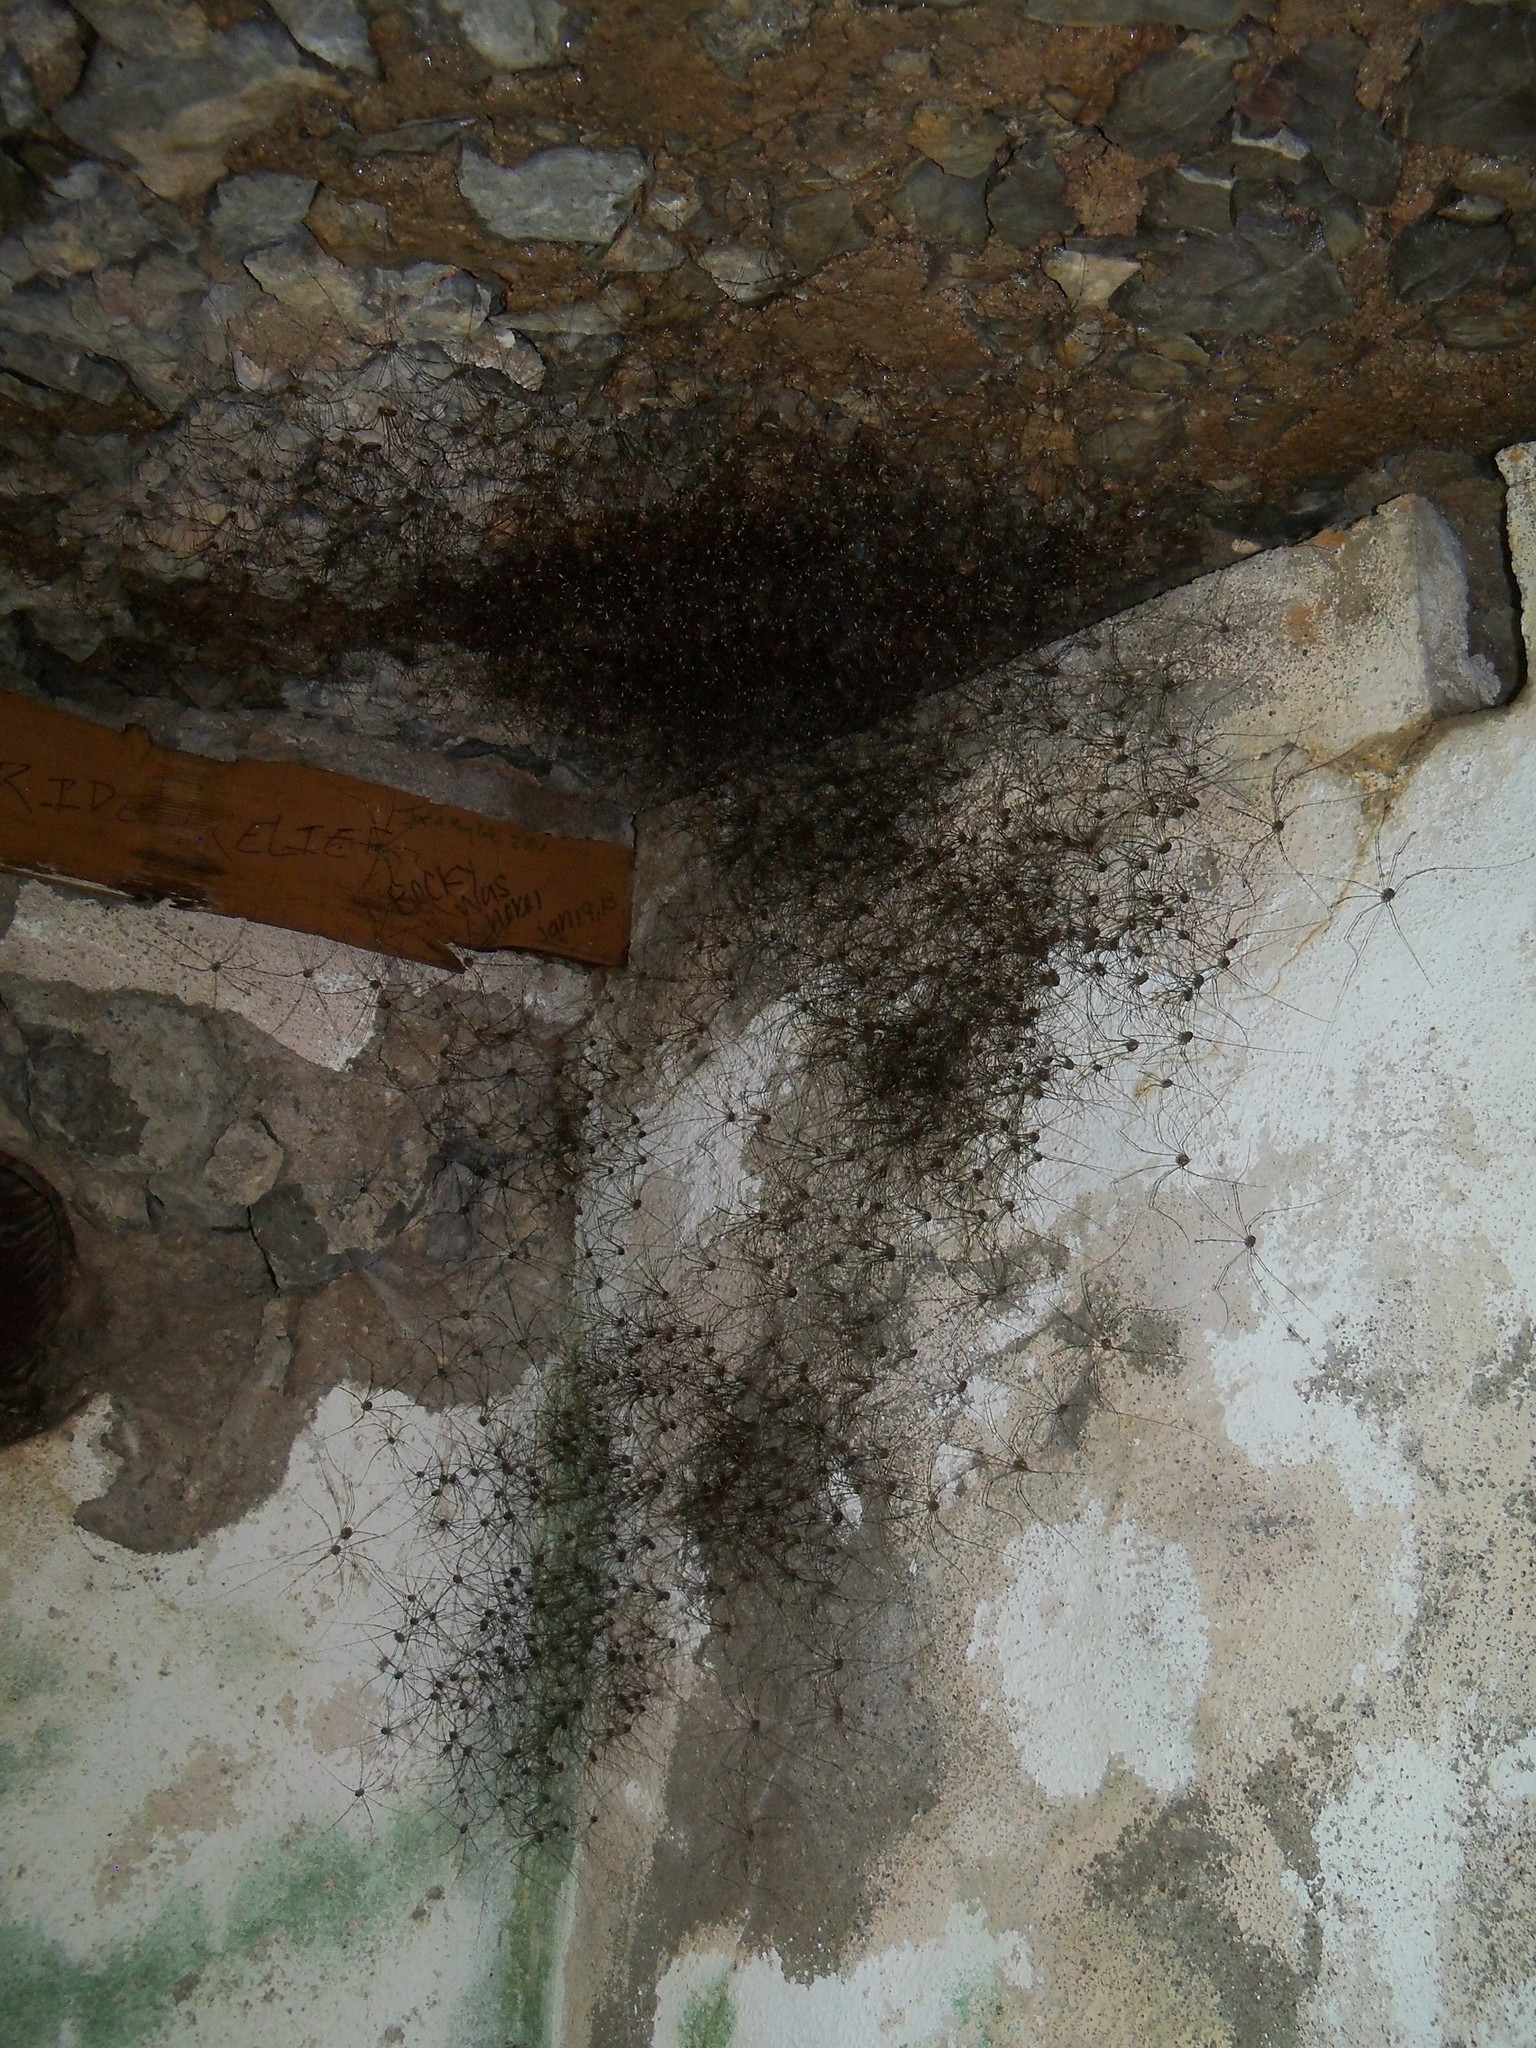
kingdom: Animalia
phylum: Arthropoda
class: Arachnida
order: Opiliones
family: Sclerosomatidae
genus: Leiobunum
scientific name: Leiobunum townsendi
